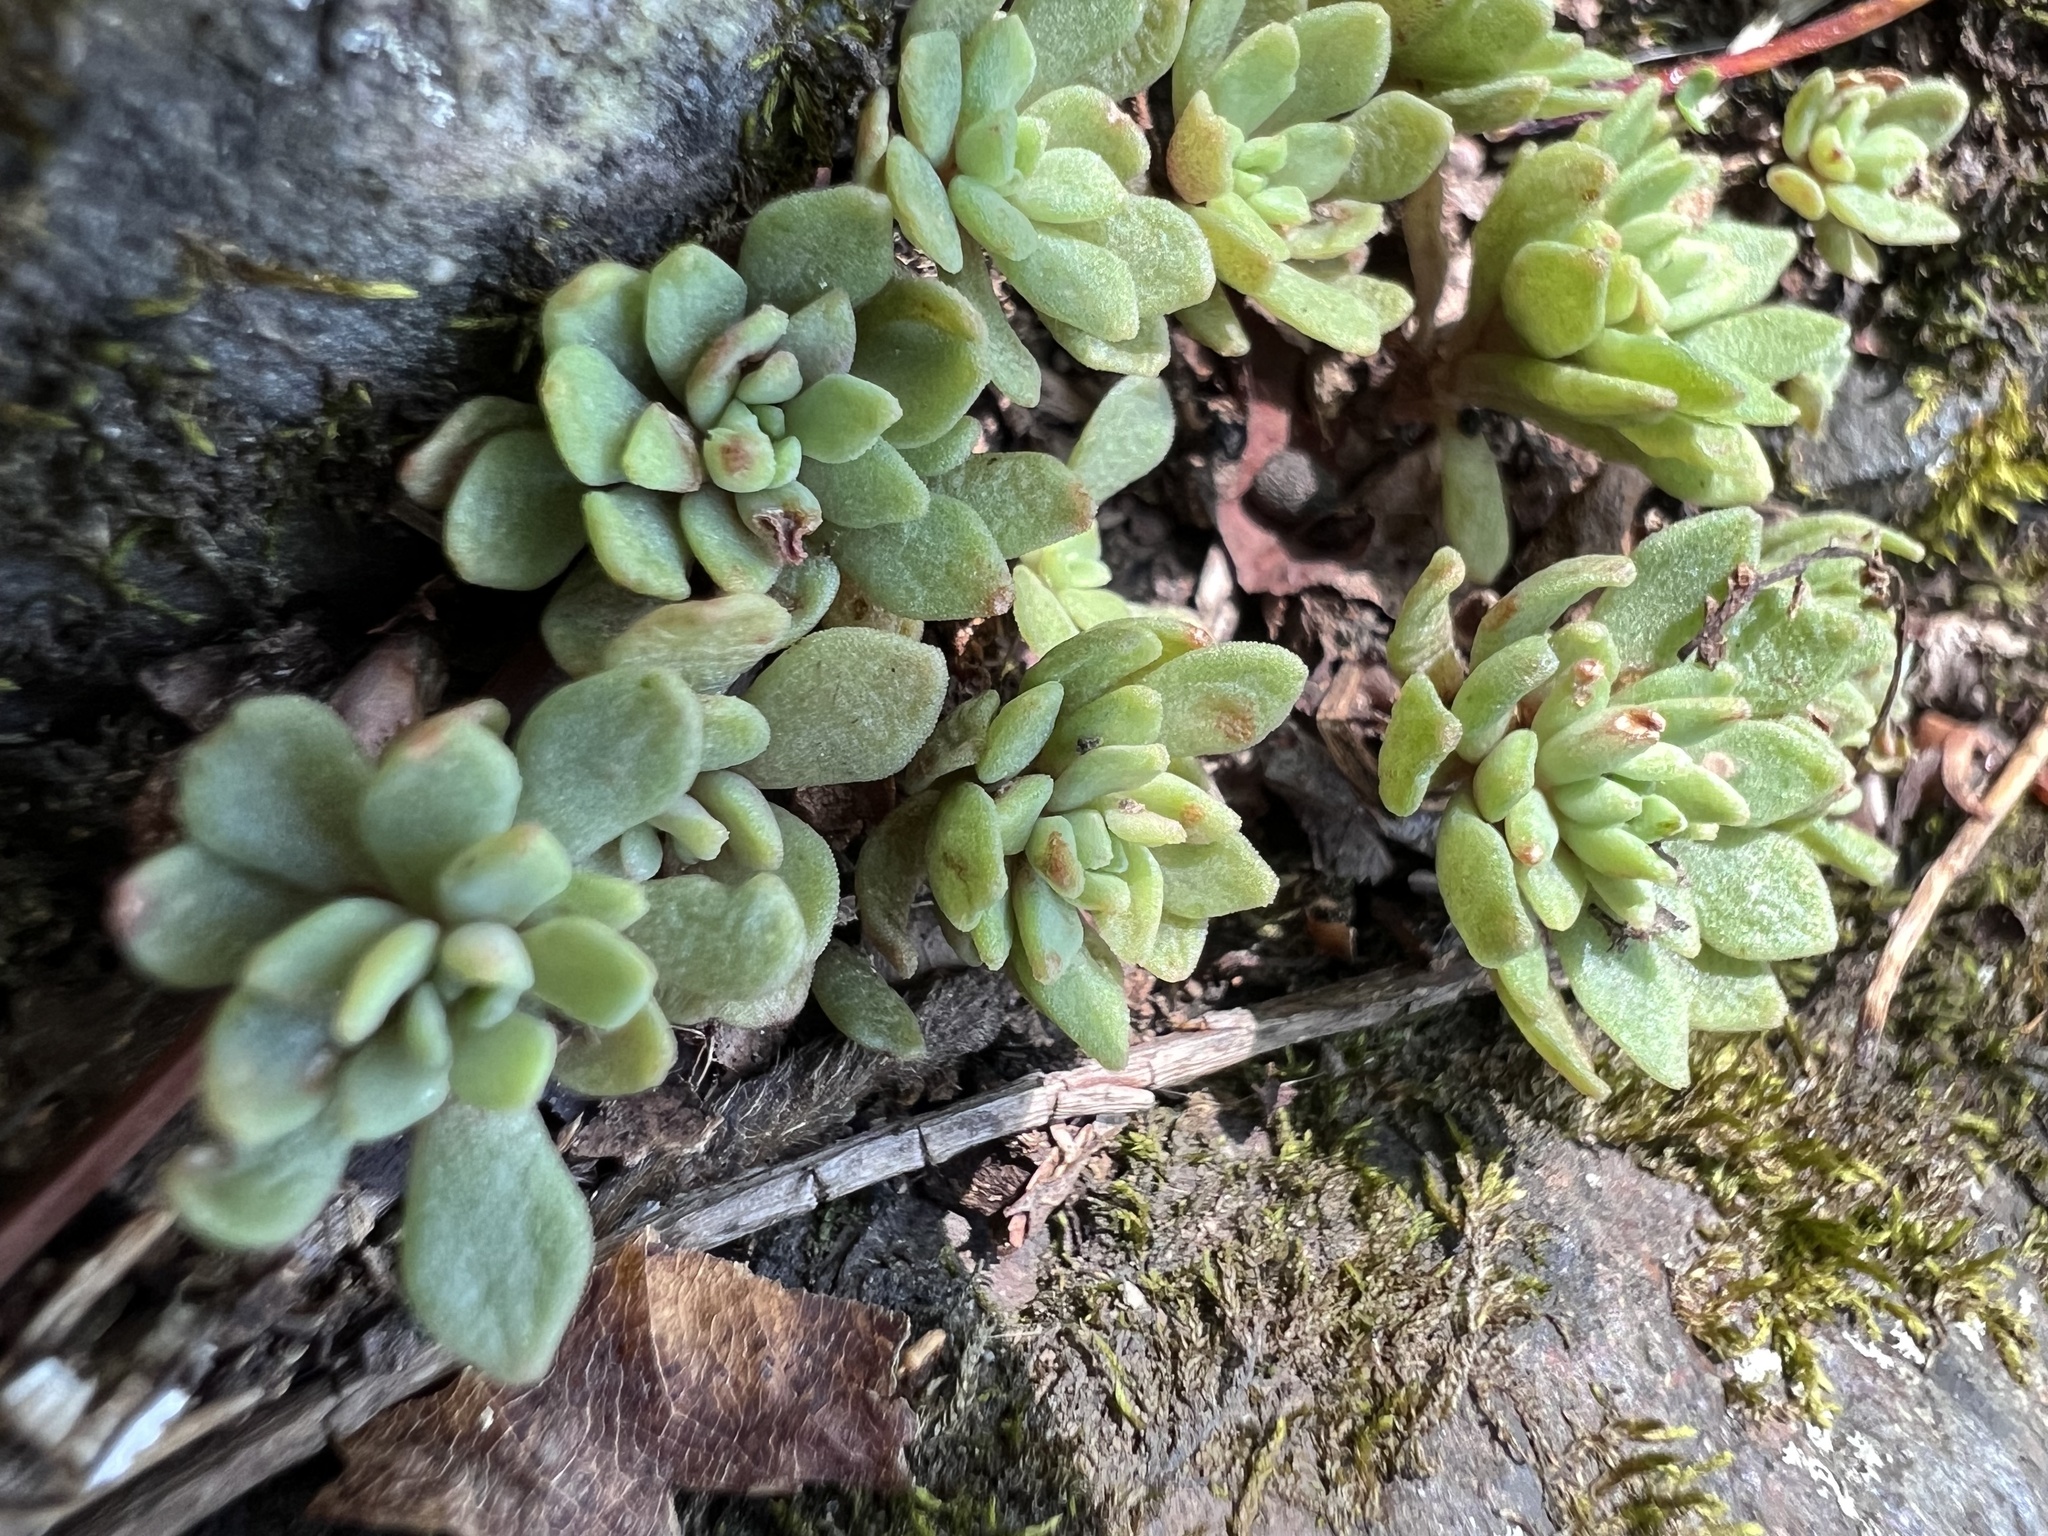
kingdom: Plantae
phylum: Tracheophyta
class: Magnoliopsida
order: Saxifragales
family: Crassulaceae
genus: Sedum
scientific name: Sedum glaucophyllum
